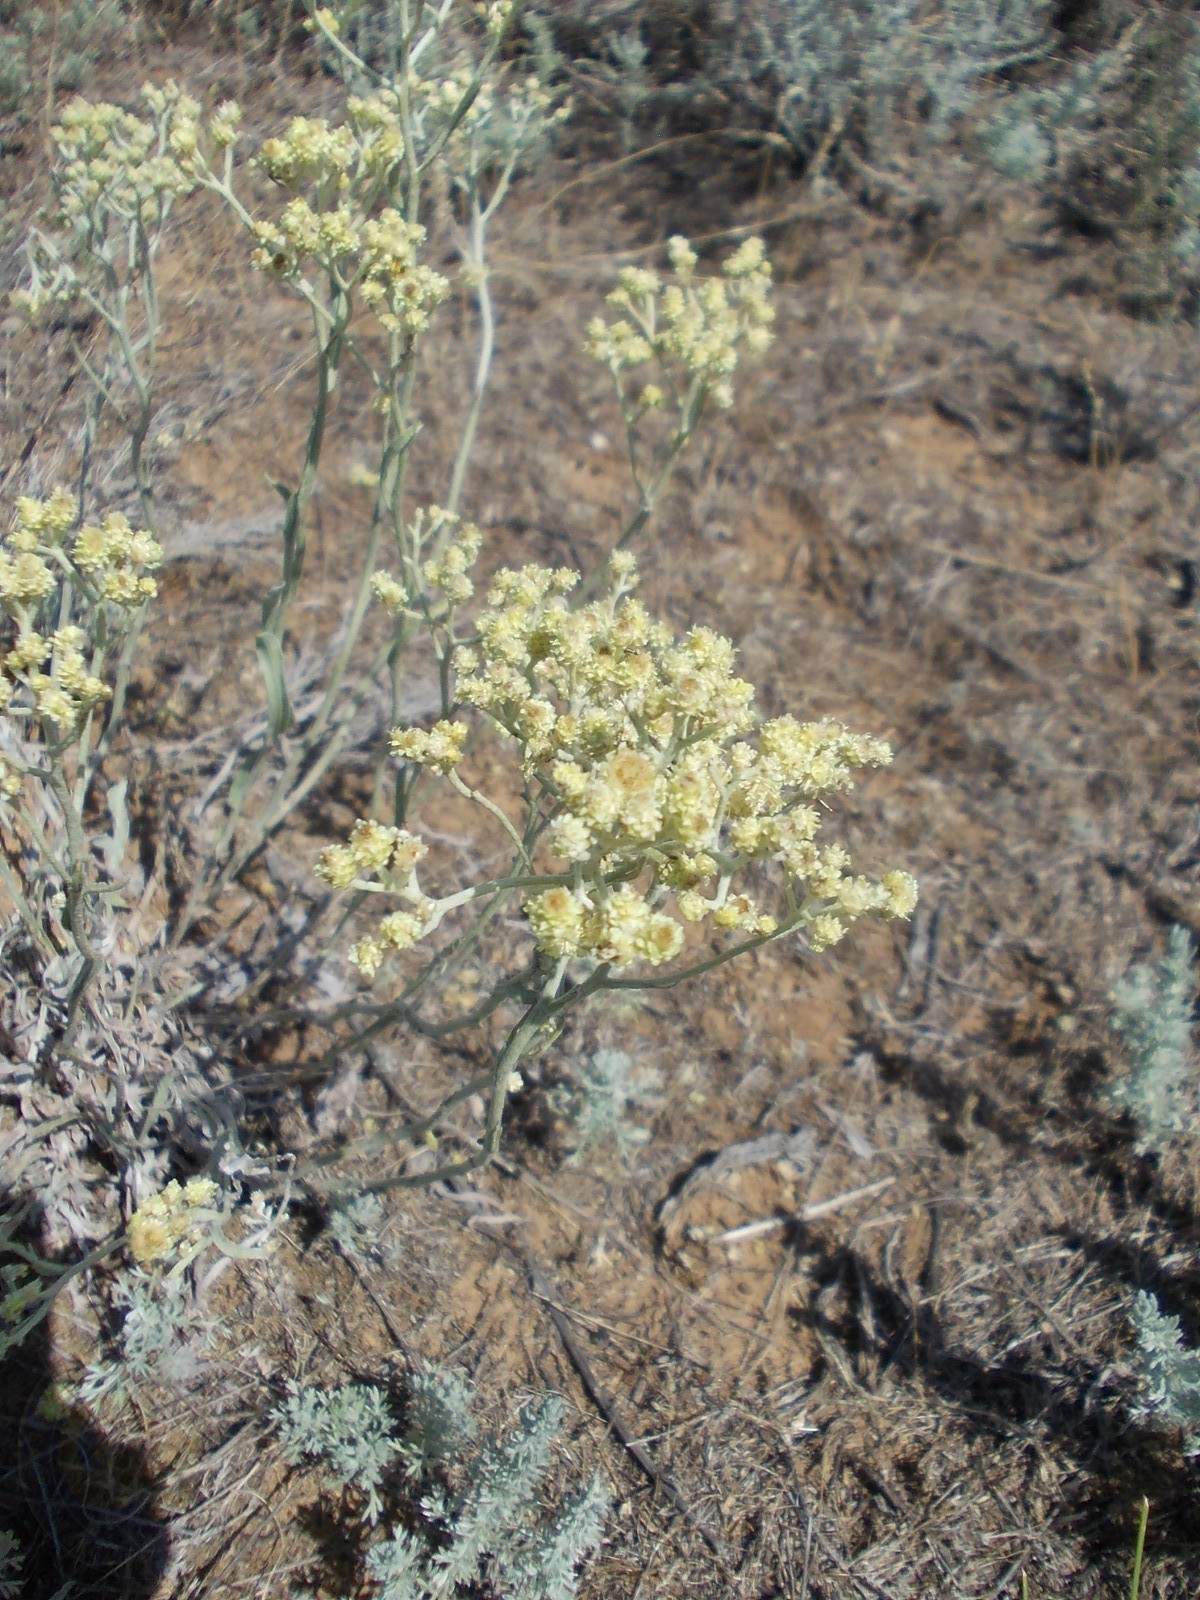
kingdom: Plantae
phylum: Tracheophyta
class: Magnoliopsida
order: Asterales
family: Asteraceae
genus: Helichrysum
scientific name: Helichrysum arenarium
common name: Strawflower
